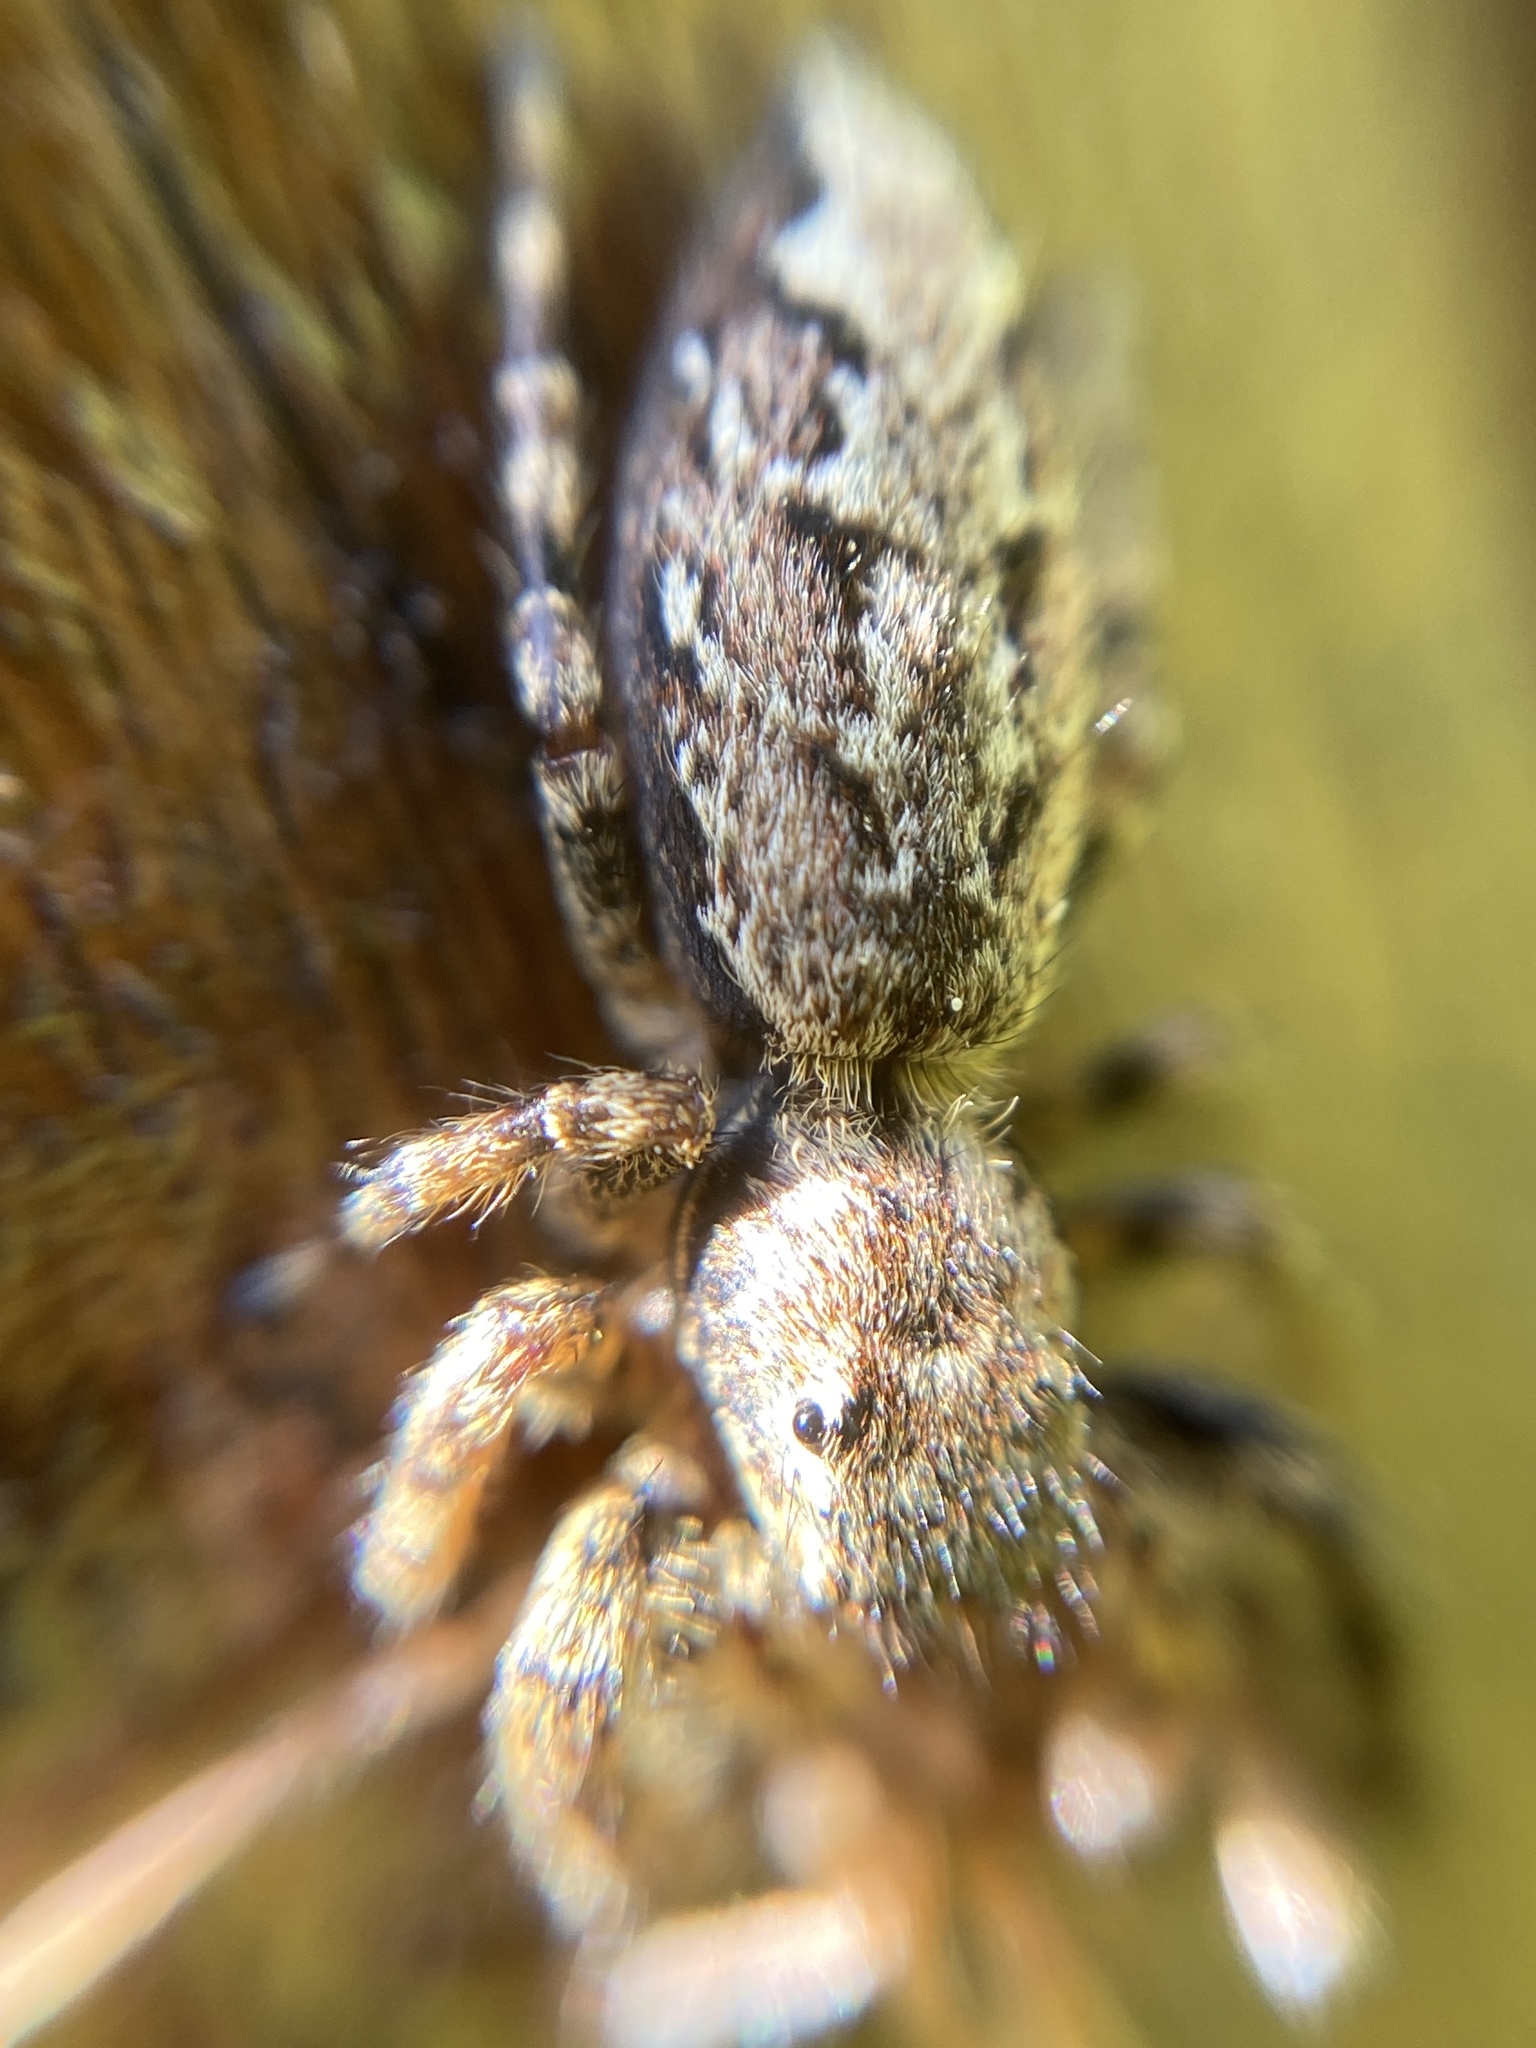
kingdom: Animalia
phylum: Arthropoda
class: Arachnida
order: Araneae
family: Salticidae
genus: Marpissa
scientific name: Marpissa muscosa
